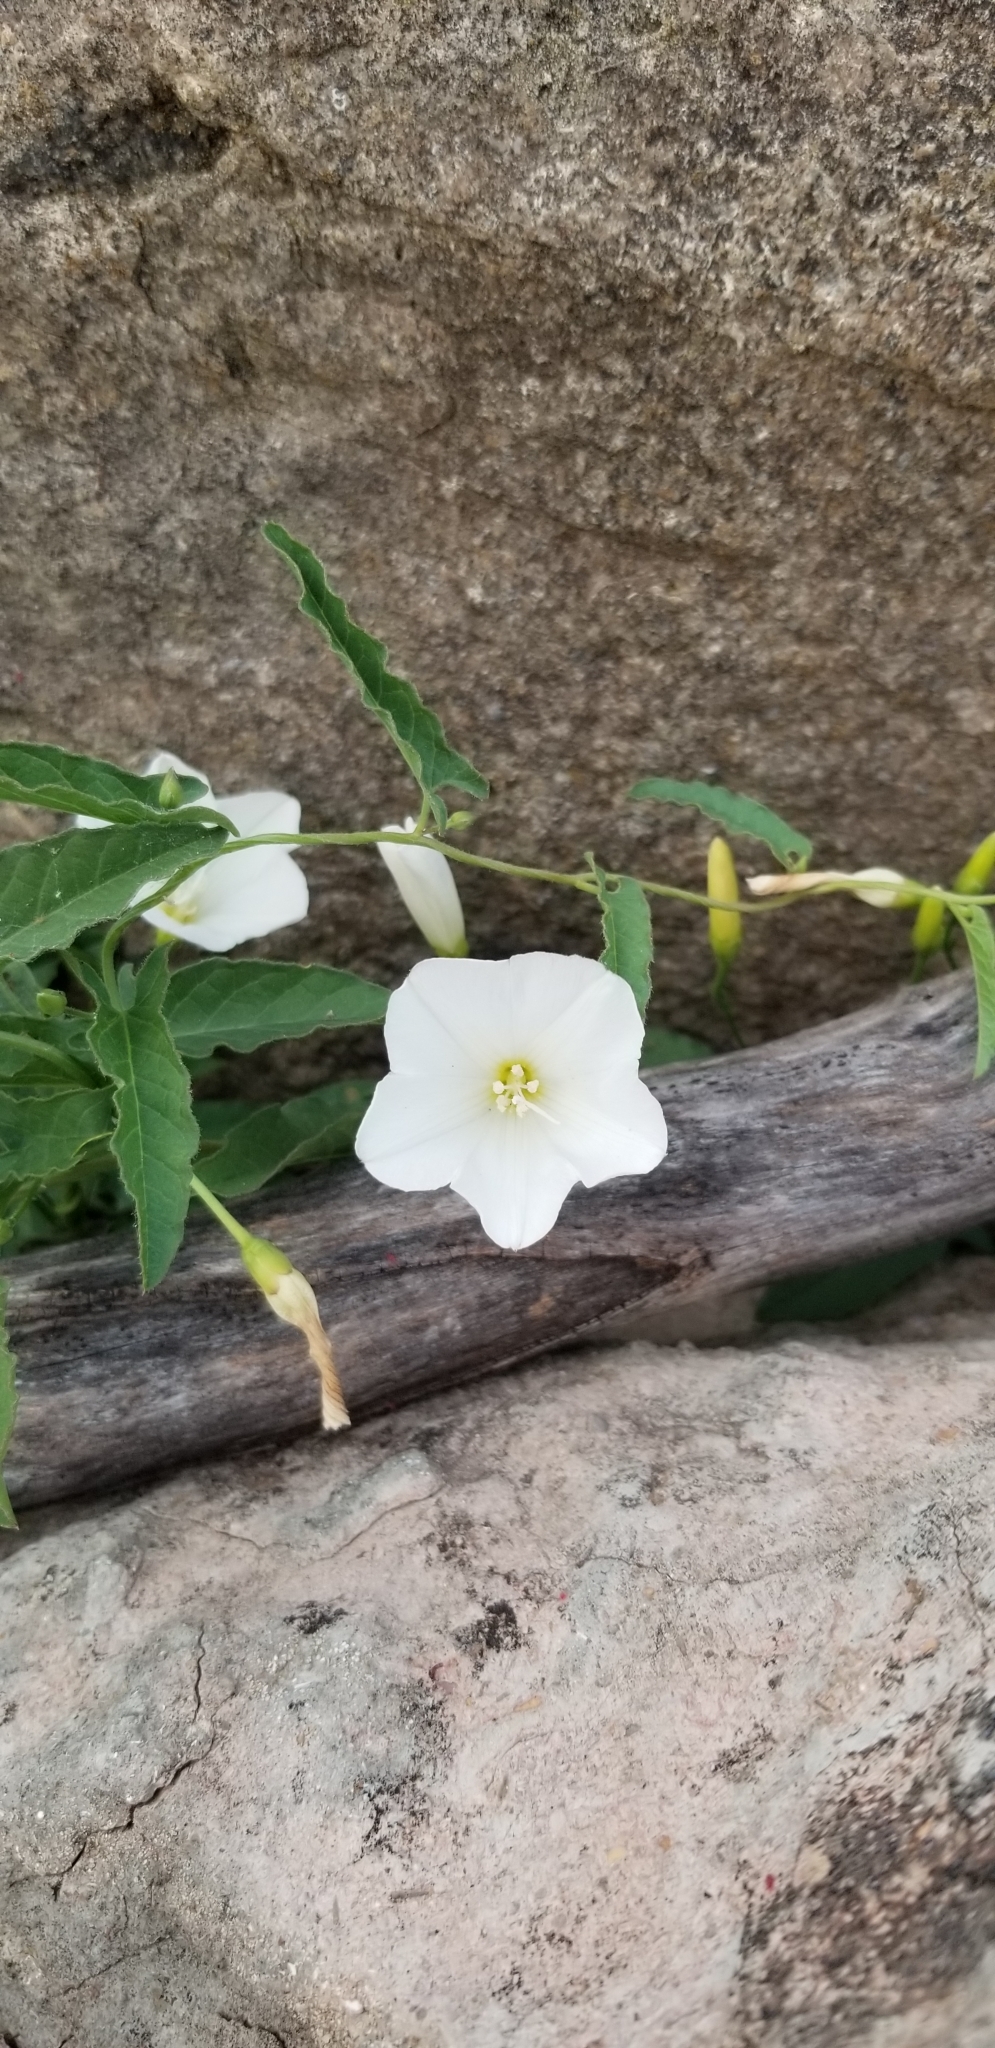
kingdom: Plantae
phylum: Tracheophyta
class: Magnoliopsida
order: Solanales
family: Convolvulaceae
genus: Convolvulus
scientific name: Convolvulus arvensis
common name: Field bindweed
